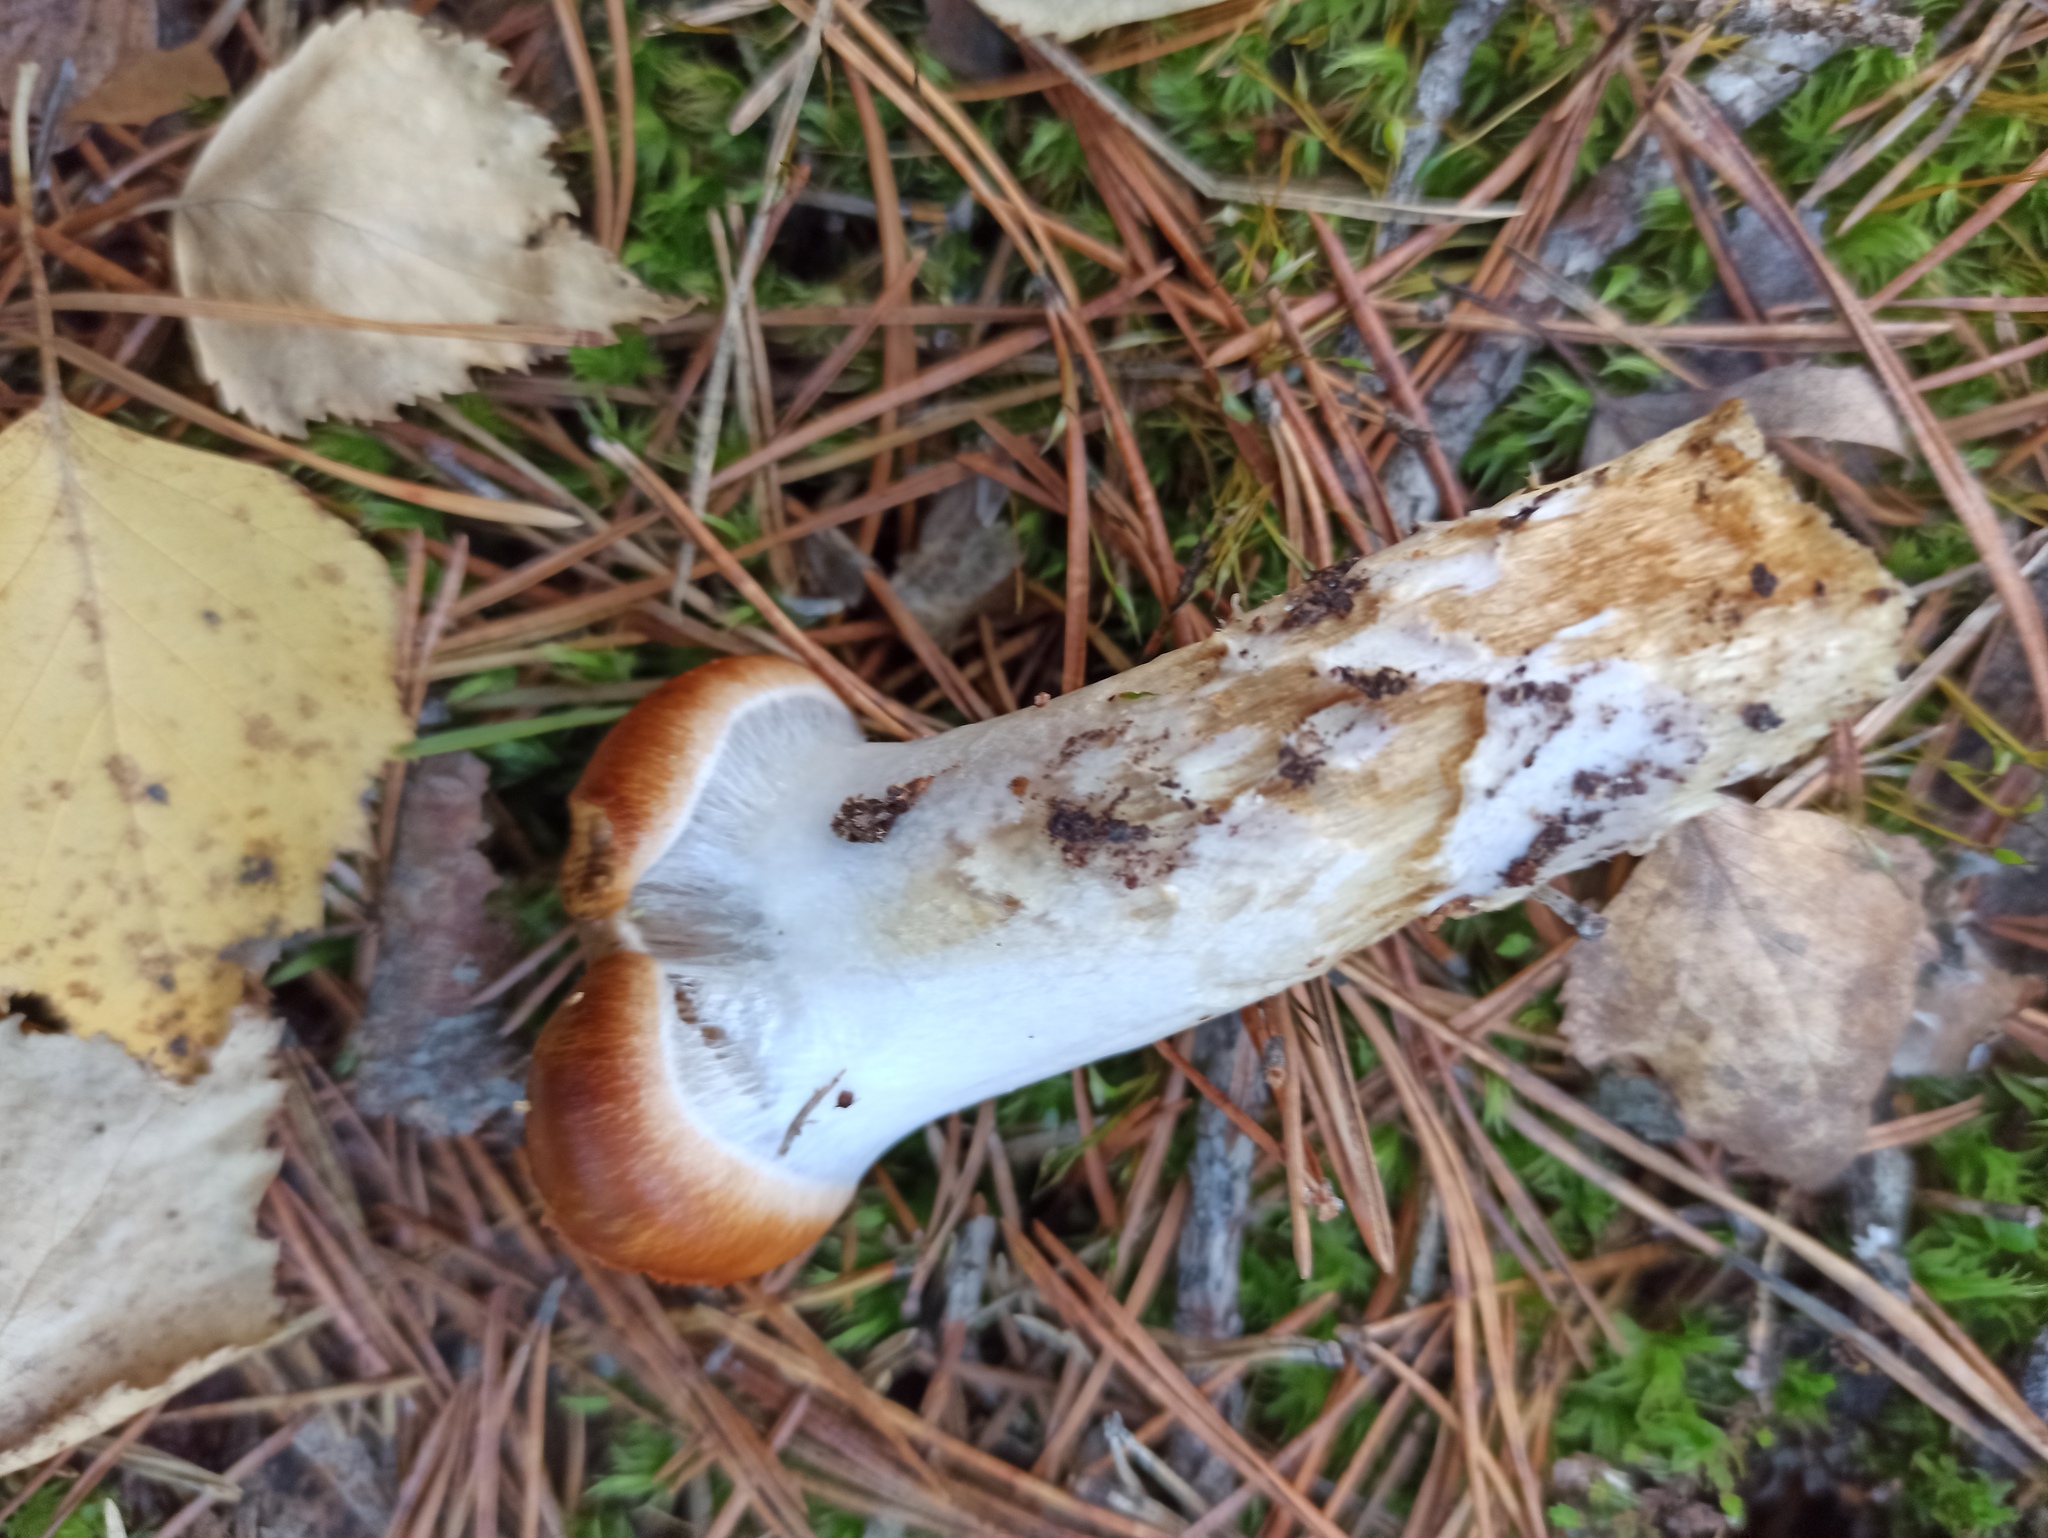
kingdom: Fungi
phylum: Basidiomycota
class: Agaricomycetes
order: Agaricales
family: Cortinariaceae
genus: Cortinarius
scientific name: Cortinarius mucosus
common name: Orange webcap
